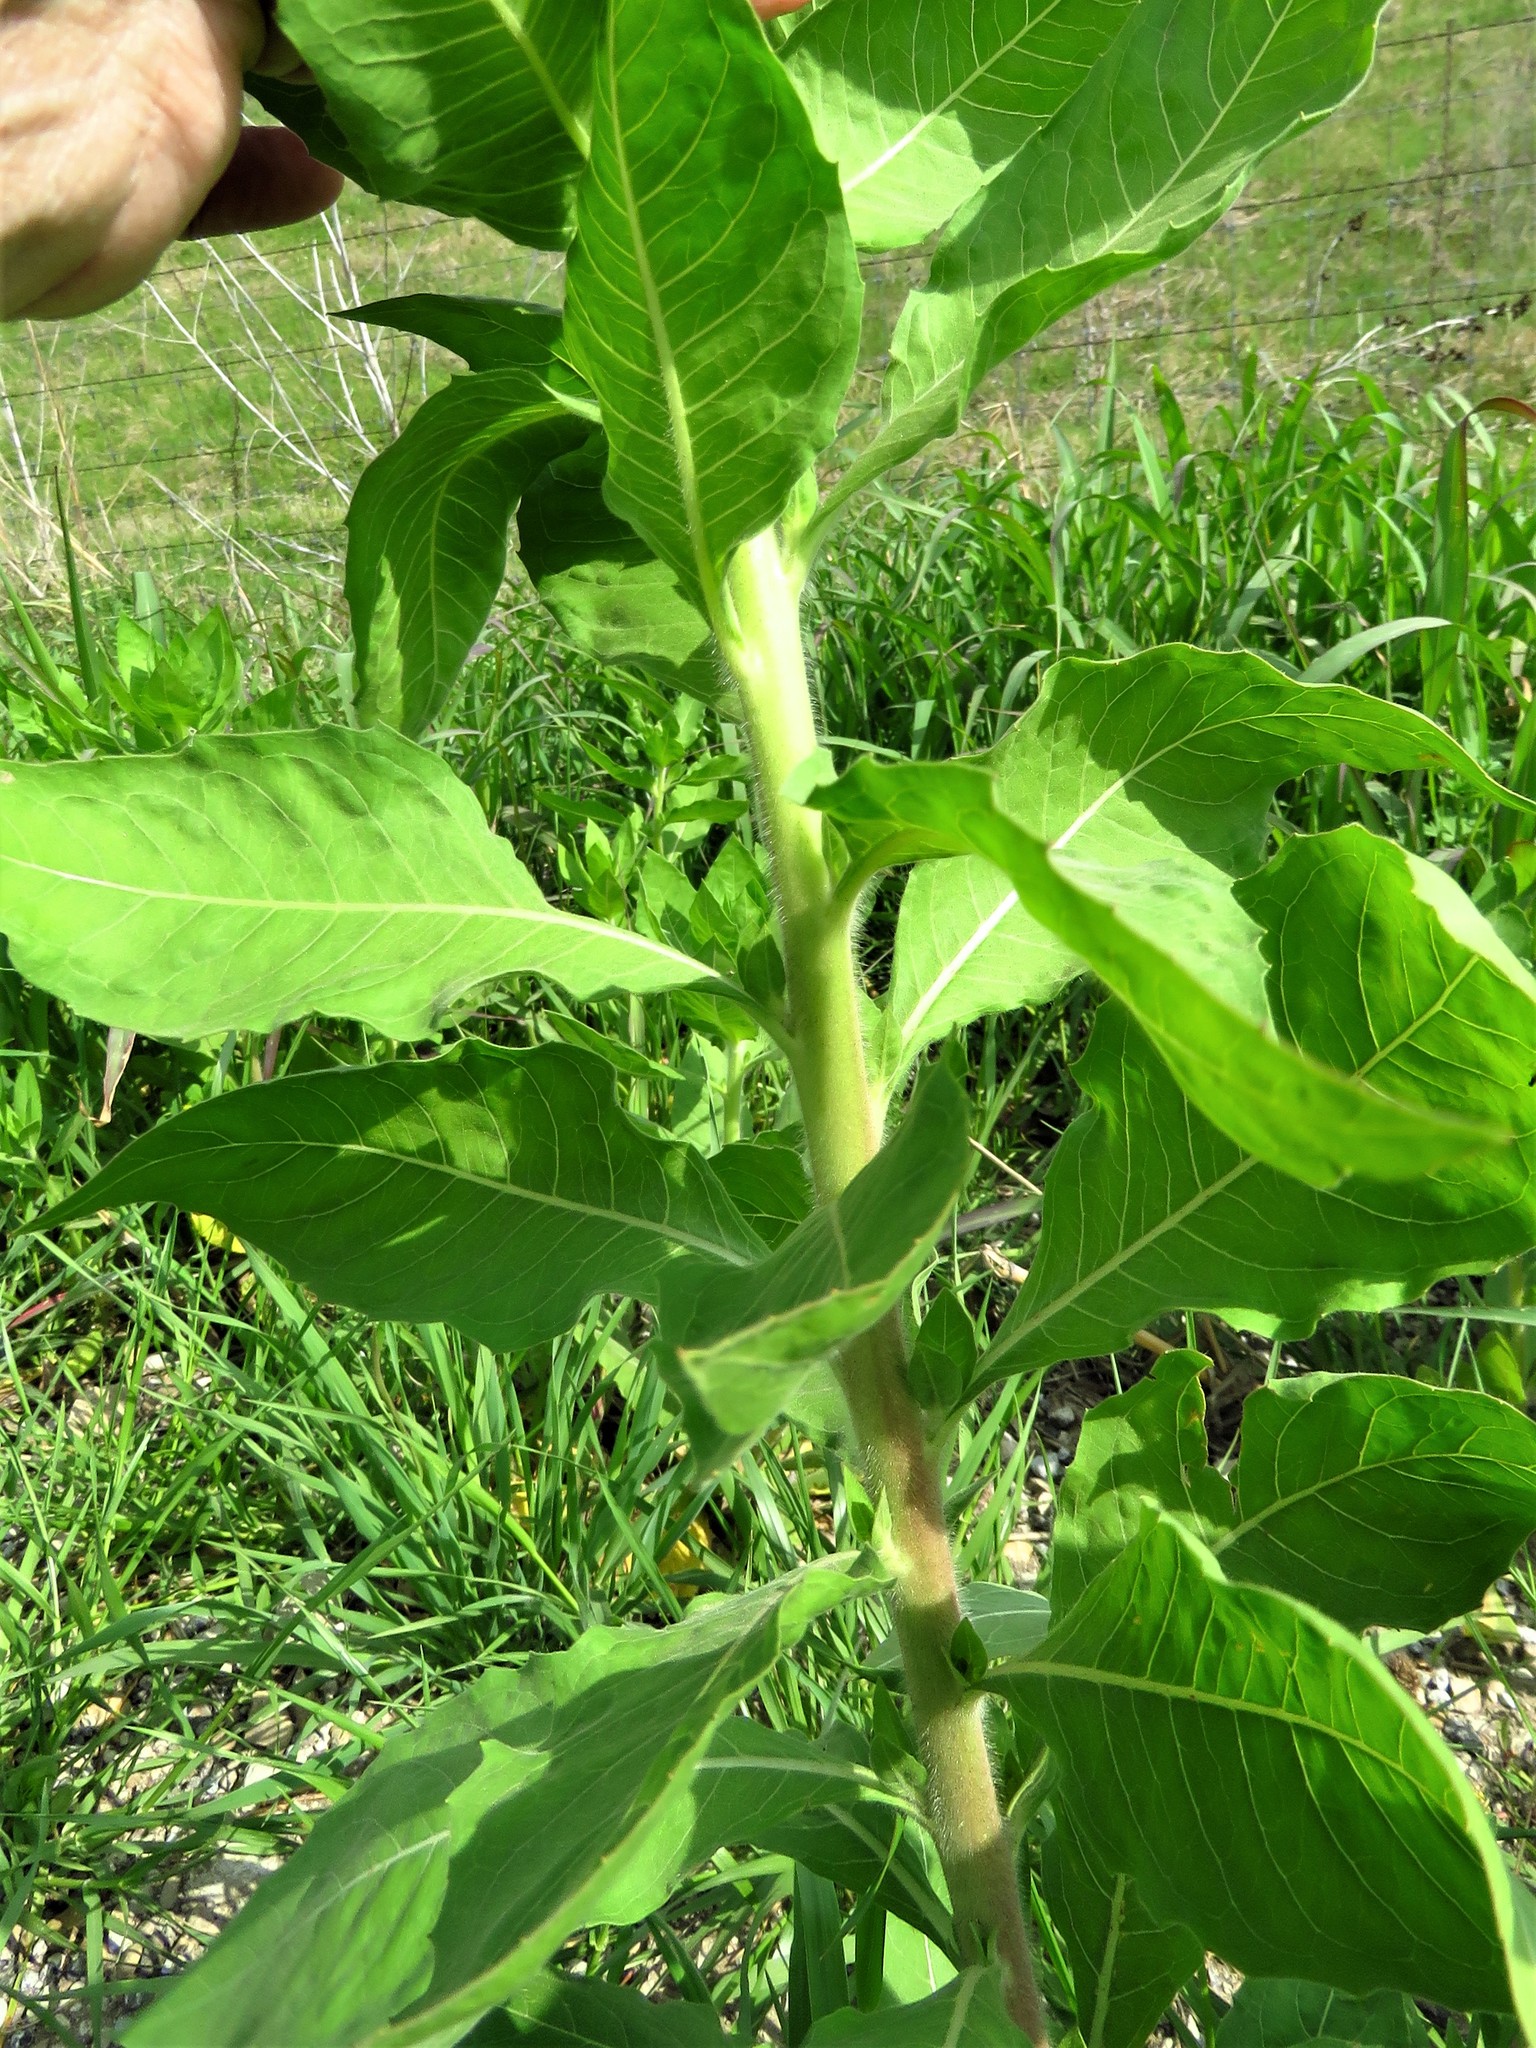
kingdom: Plantae
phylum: Tracheophyta
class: Magnoliopsida
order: Myrtales
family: Onagraceae
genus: Oenothera
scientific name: Oenothera curtiflora
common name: Velvetweed
